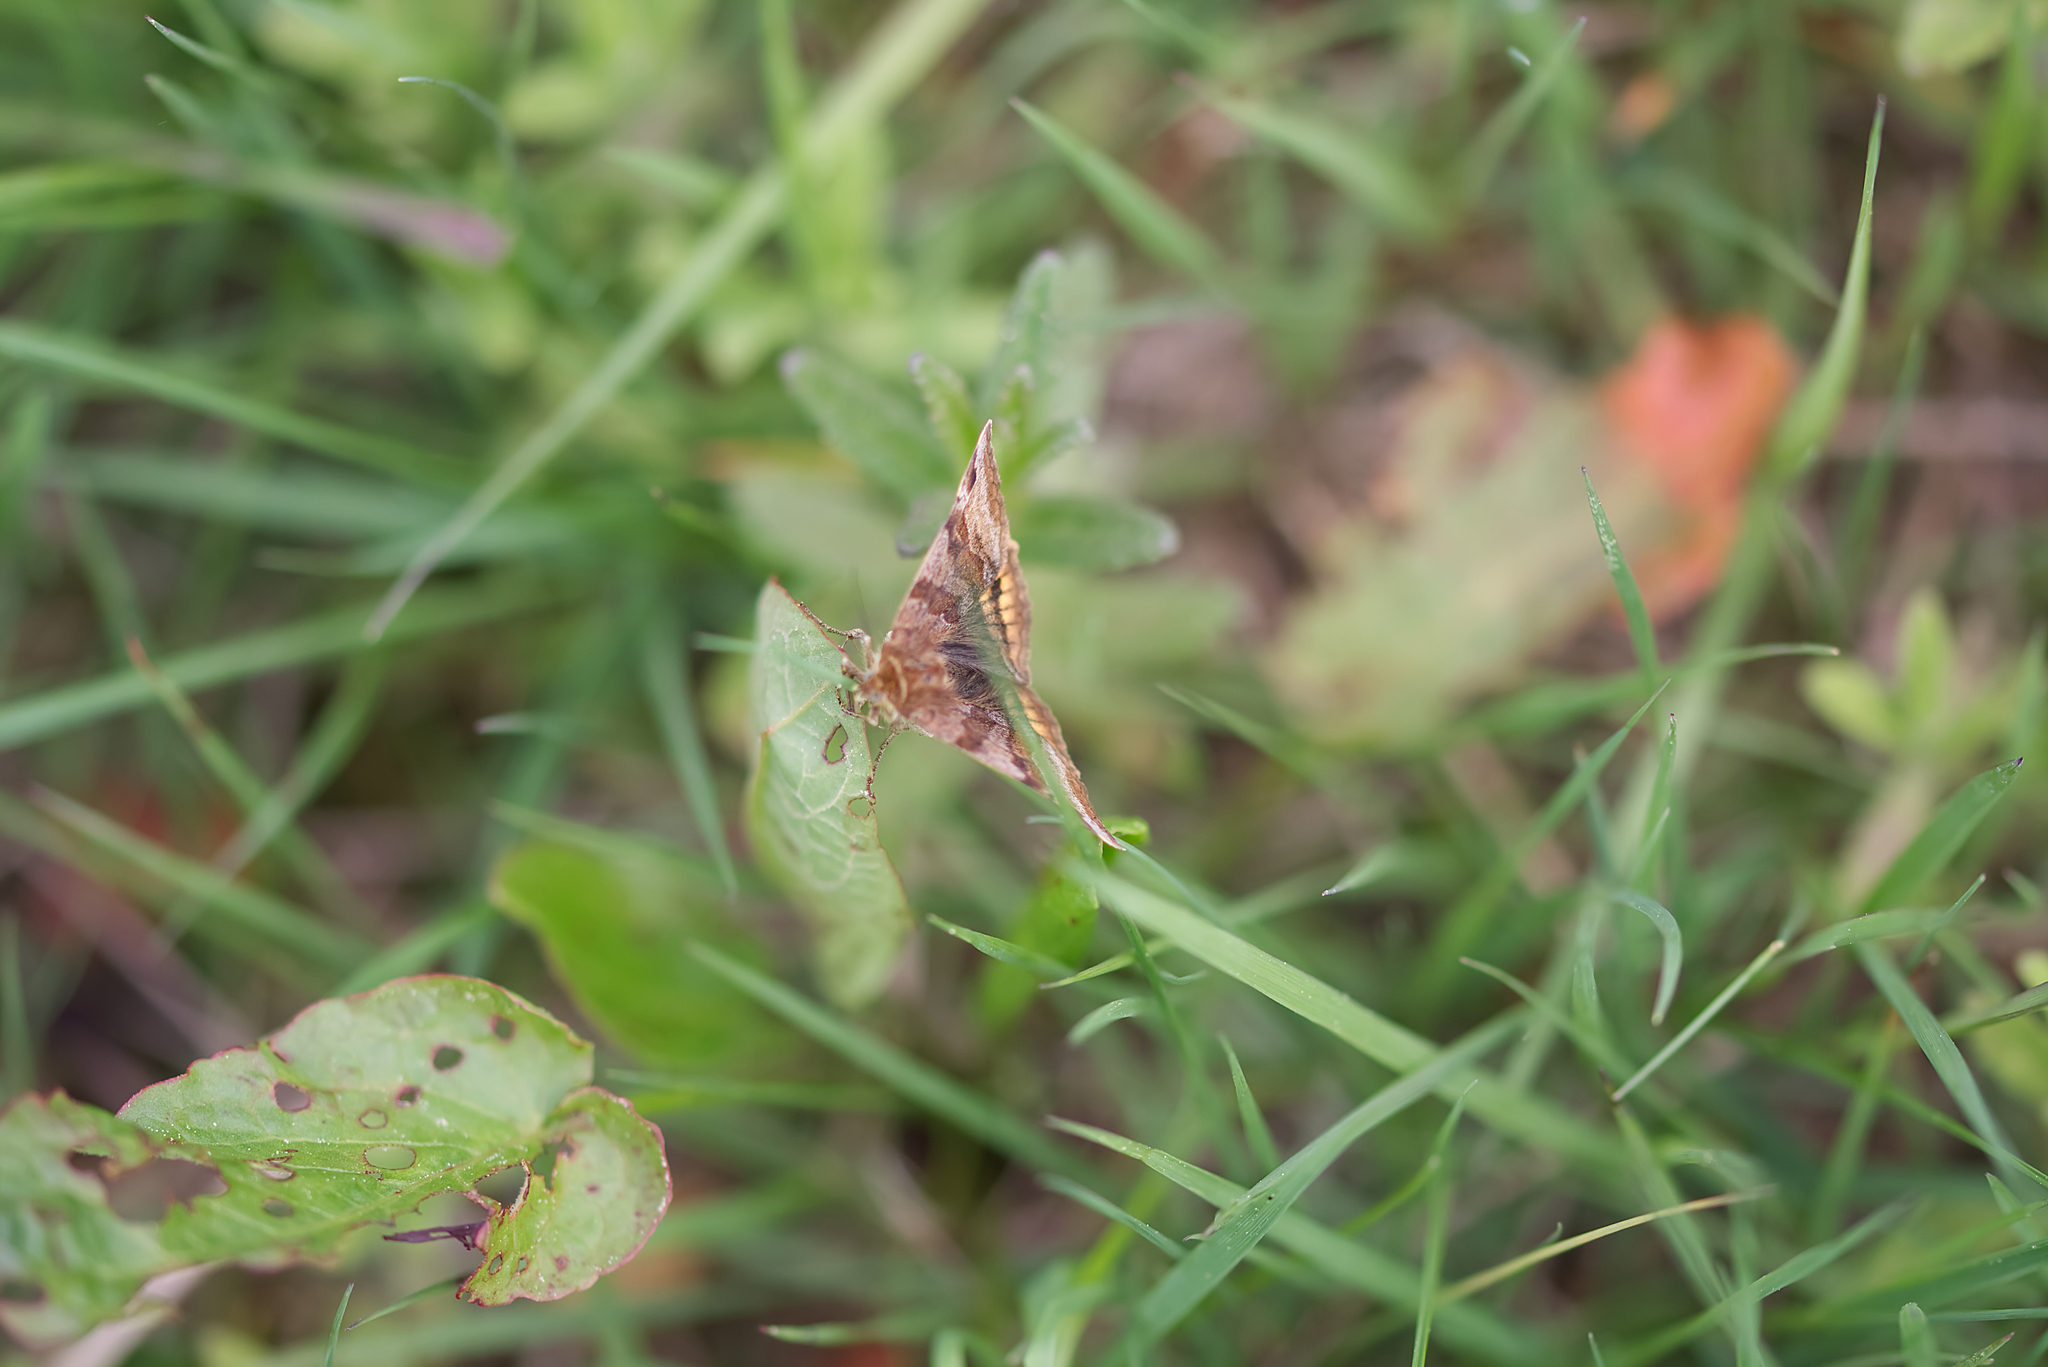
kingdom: Animalia
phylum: Arthropoda
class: Insecta
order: Lepidoptera
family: Erebidae
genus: Euclidia
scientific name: Euclidia glyphica
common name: Burnet companion
